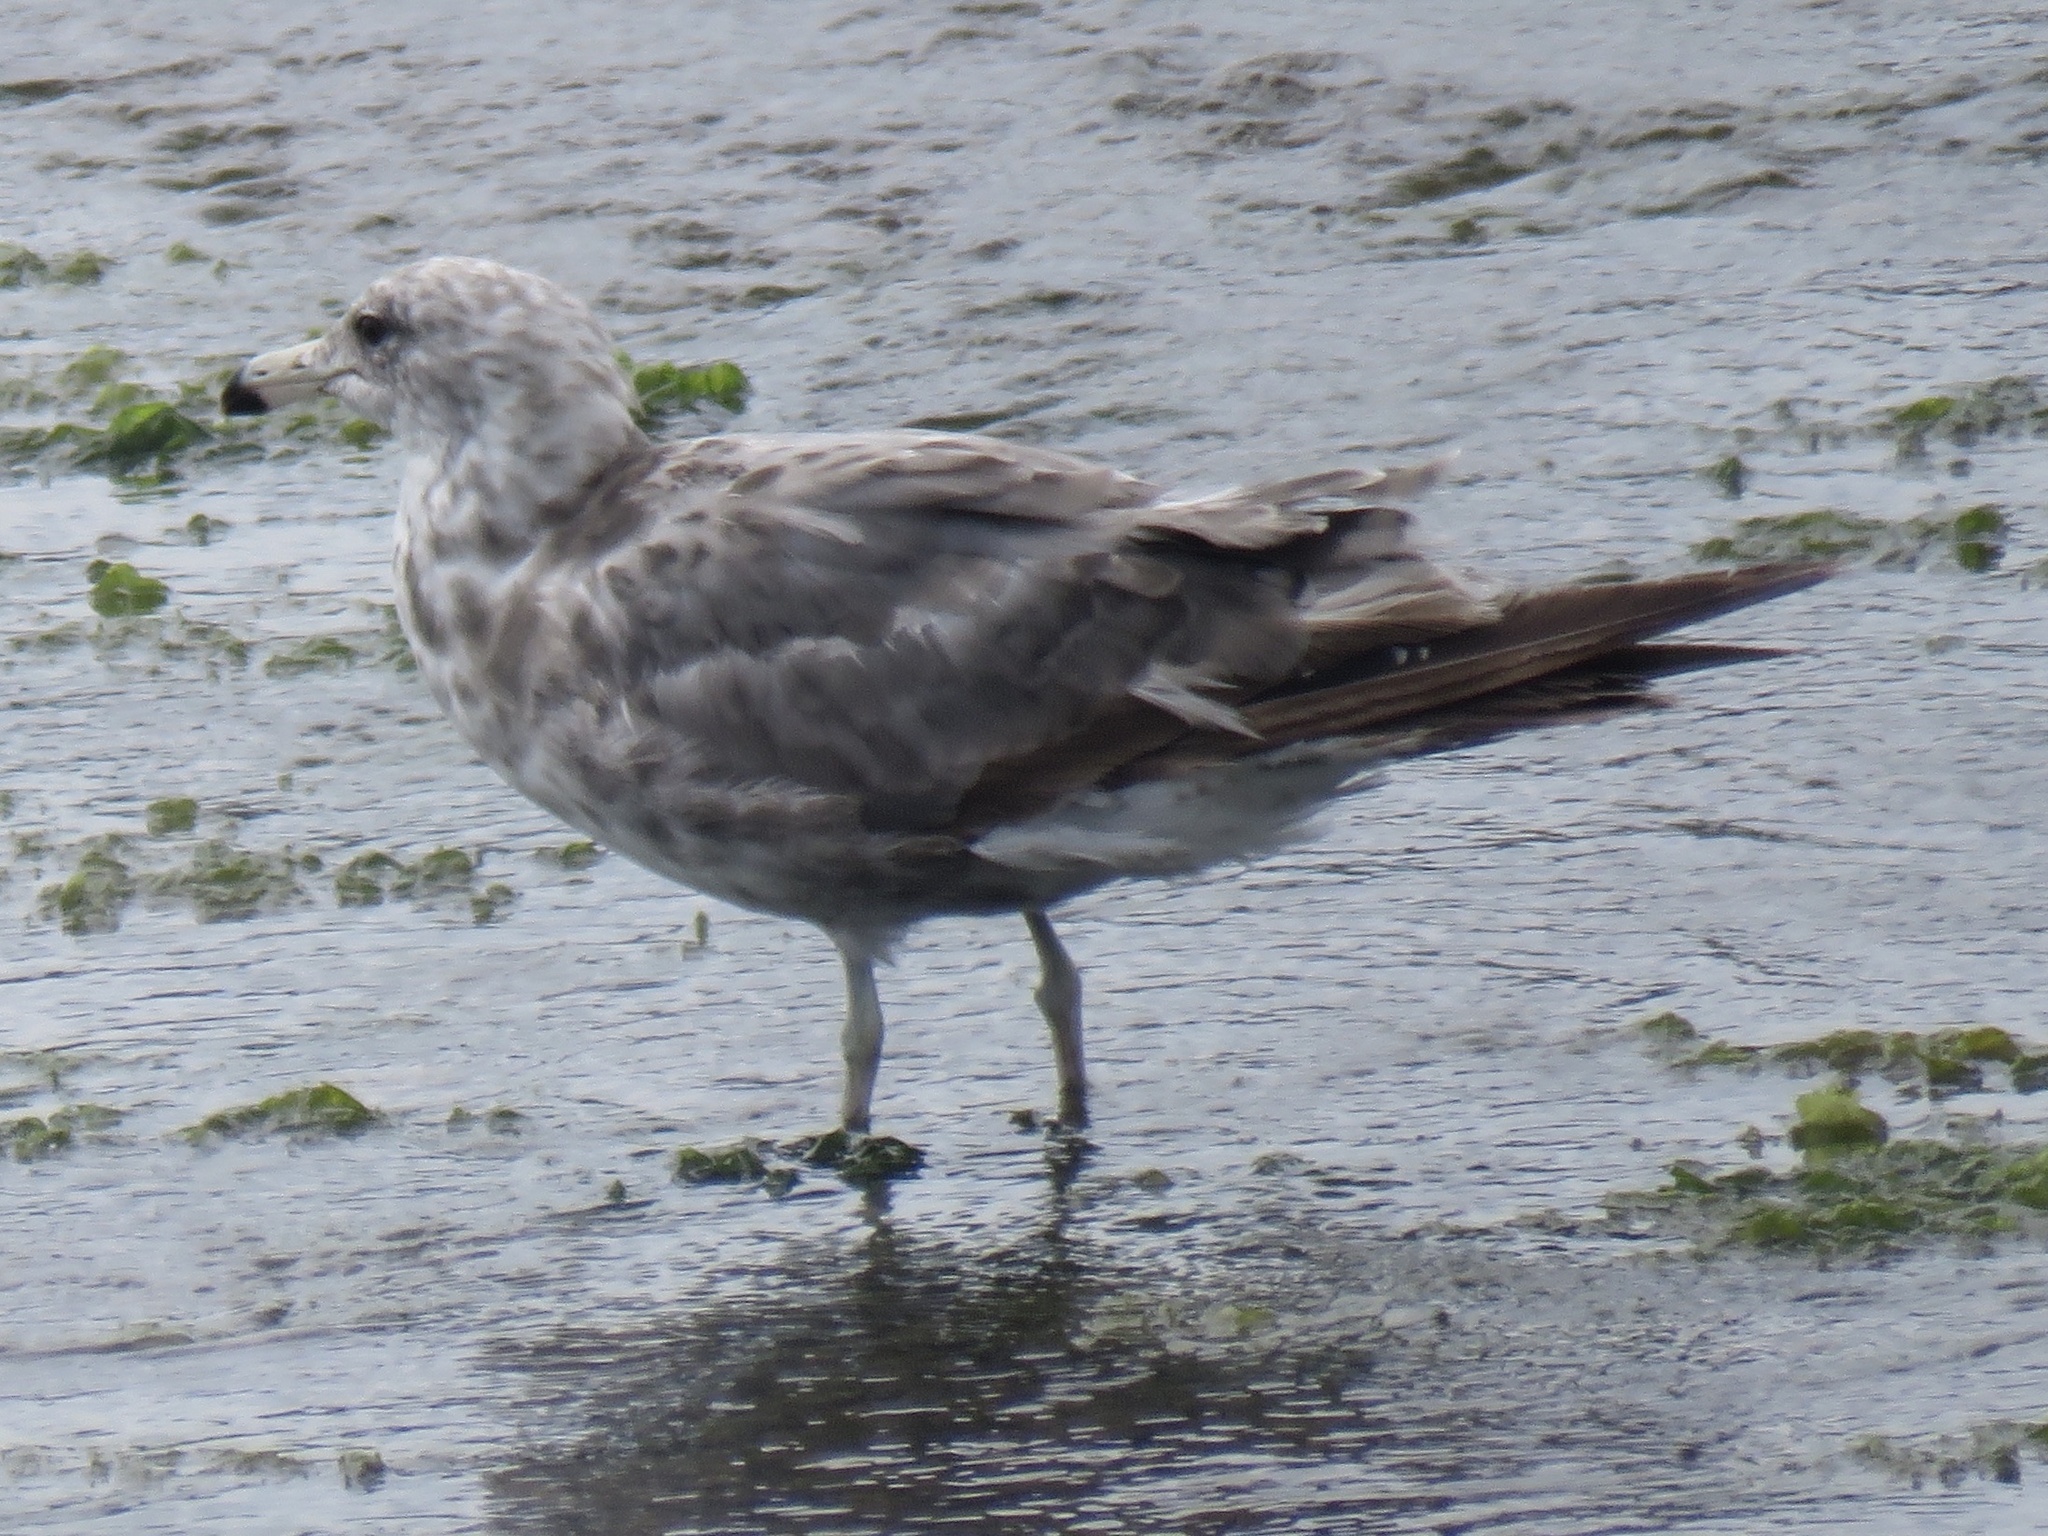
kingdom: Animalia
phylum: Chordata
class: Aves
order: Charadriiformes
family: Laridae
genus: Larus
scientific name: Larus californicus
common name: California gull
